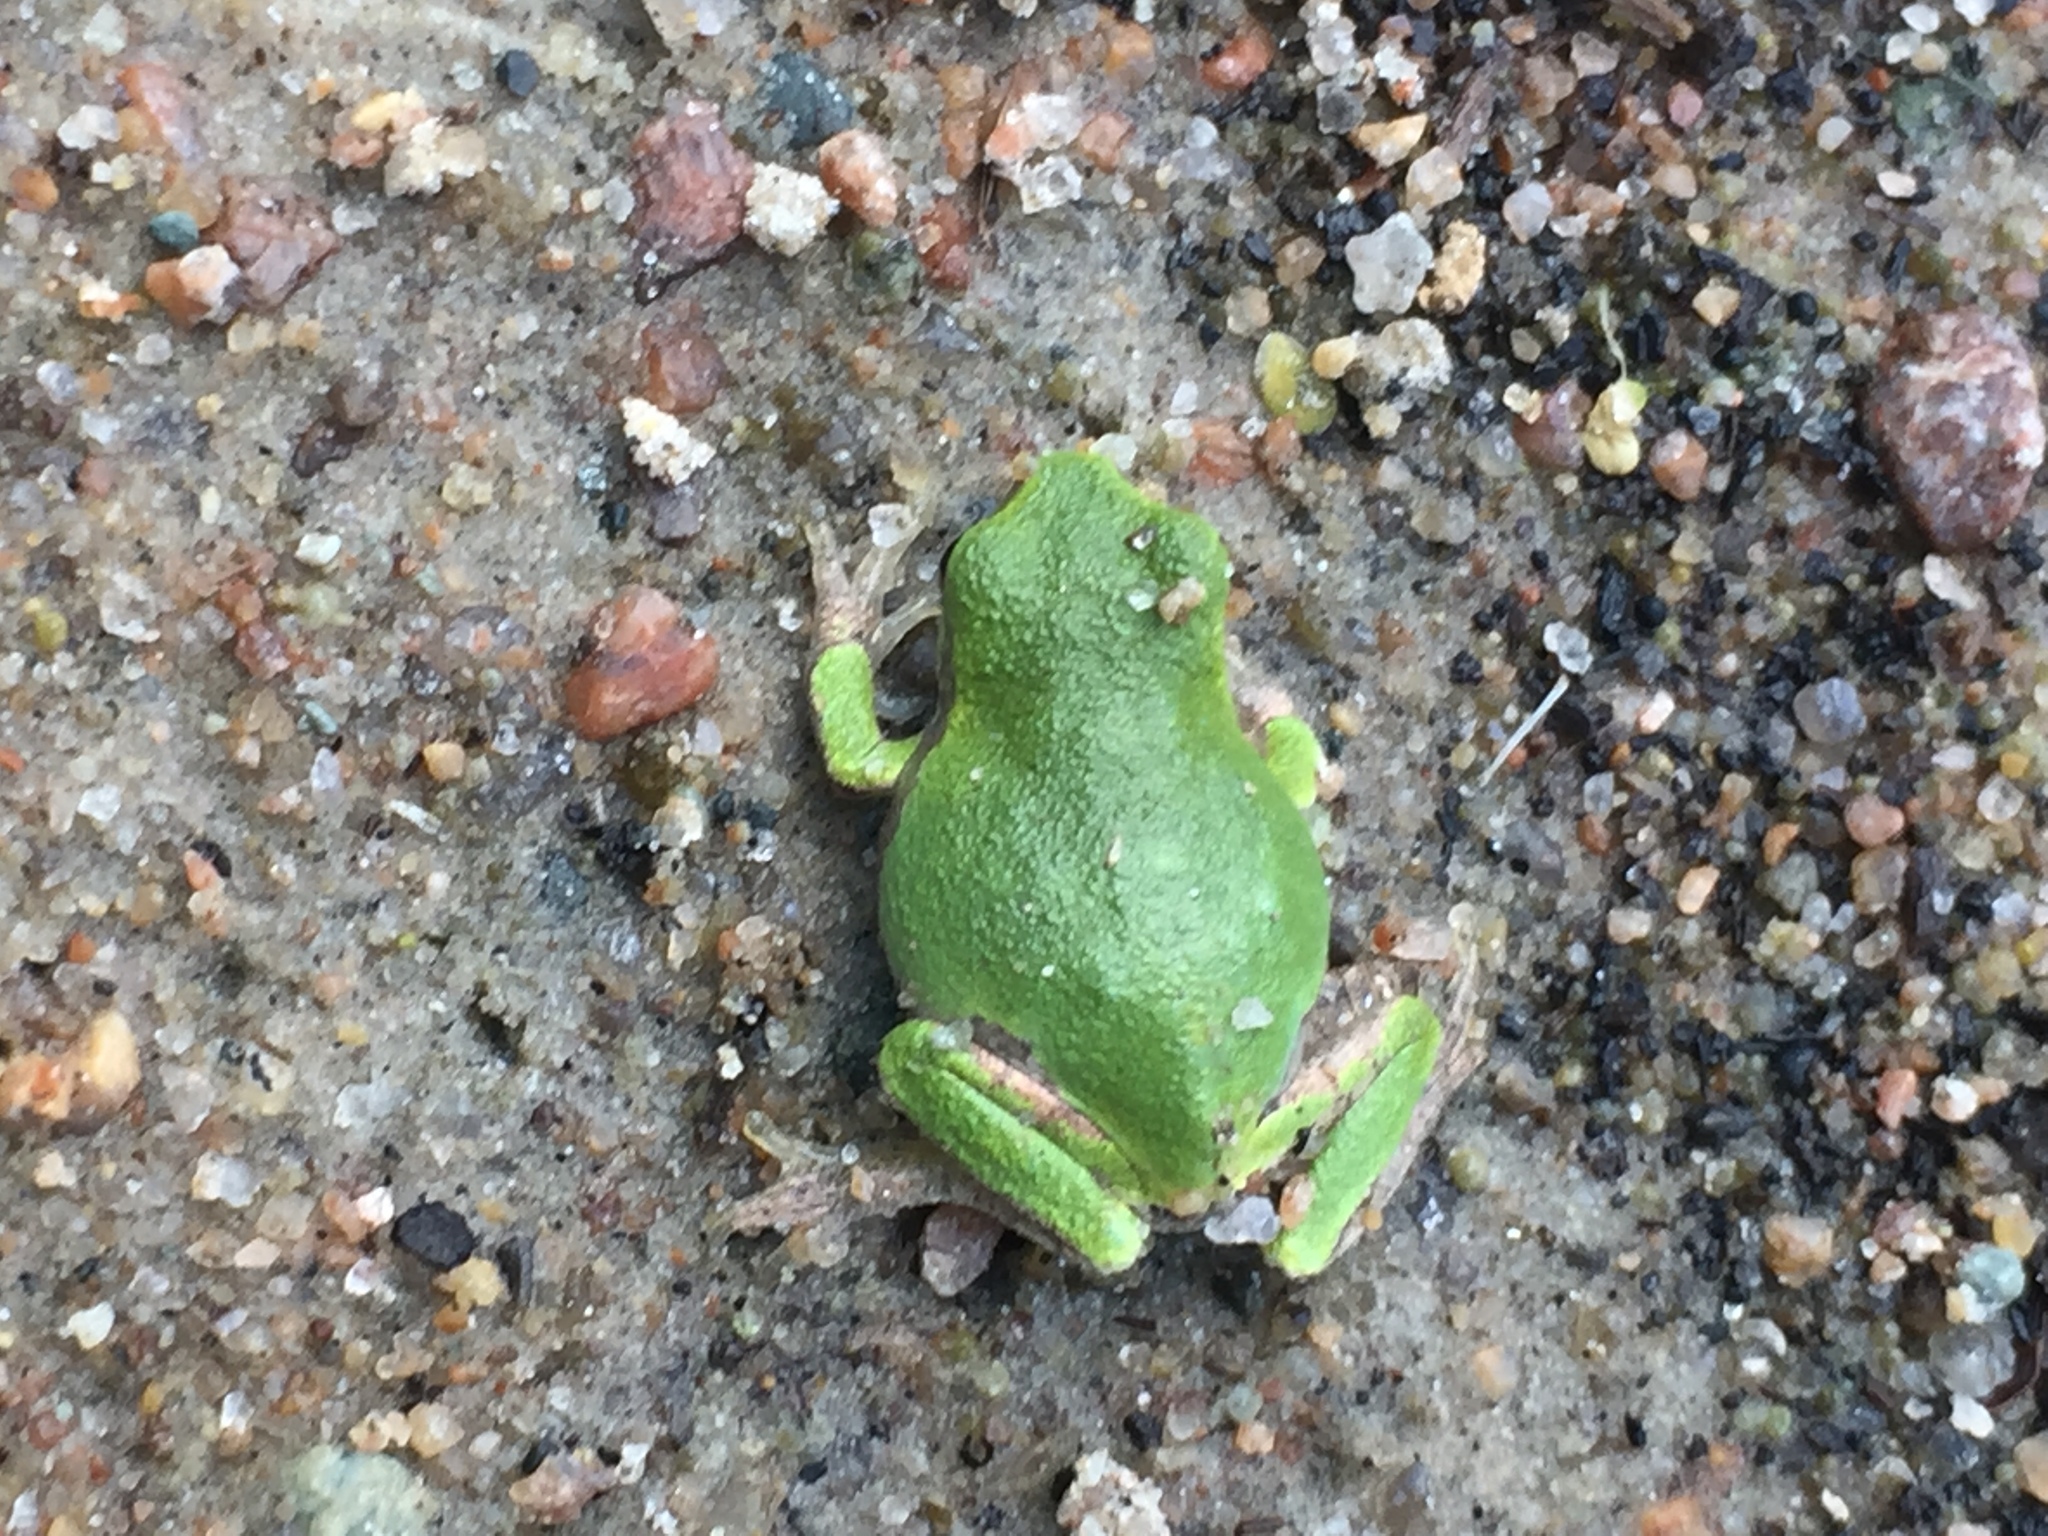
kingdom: Animalia
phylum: Chordata
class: Amphibia
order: Anura
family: Hylidae
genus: Dryophytes
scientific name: Dryophytes versicolor
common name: Gray treefrog
